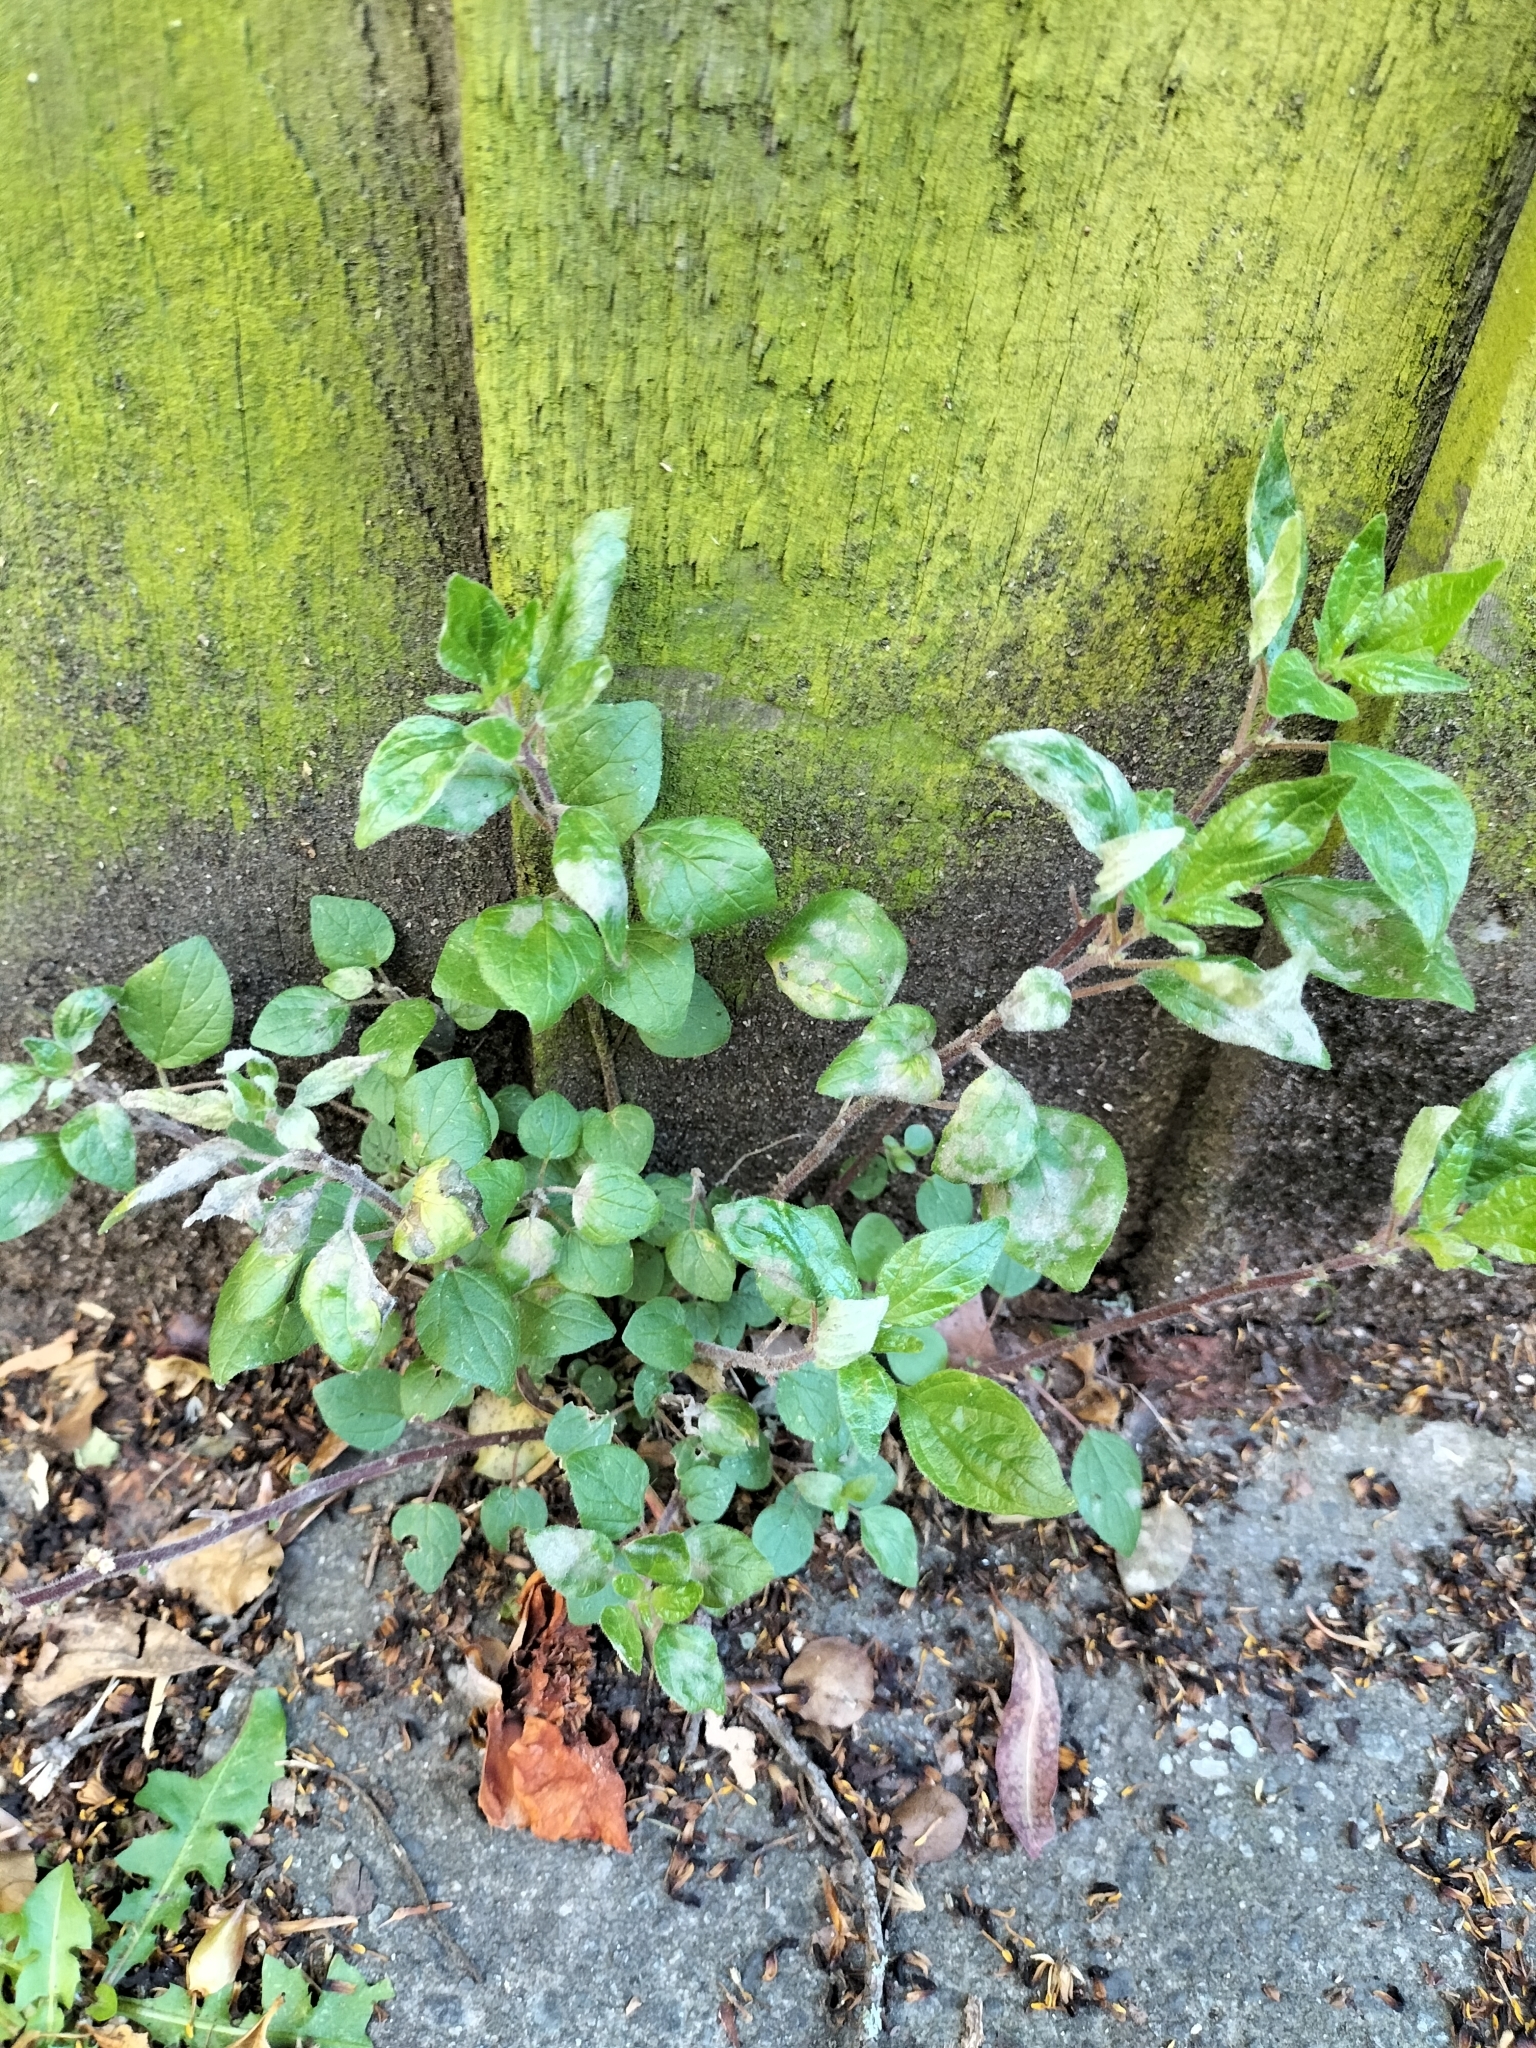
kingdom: Plantae
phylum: Tracheophyta
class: Magnoliopsida
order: Rosales
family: Urticaceae
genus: Parietaria
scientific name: Parietaria judaica
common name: Pellitory-of-the-wall
